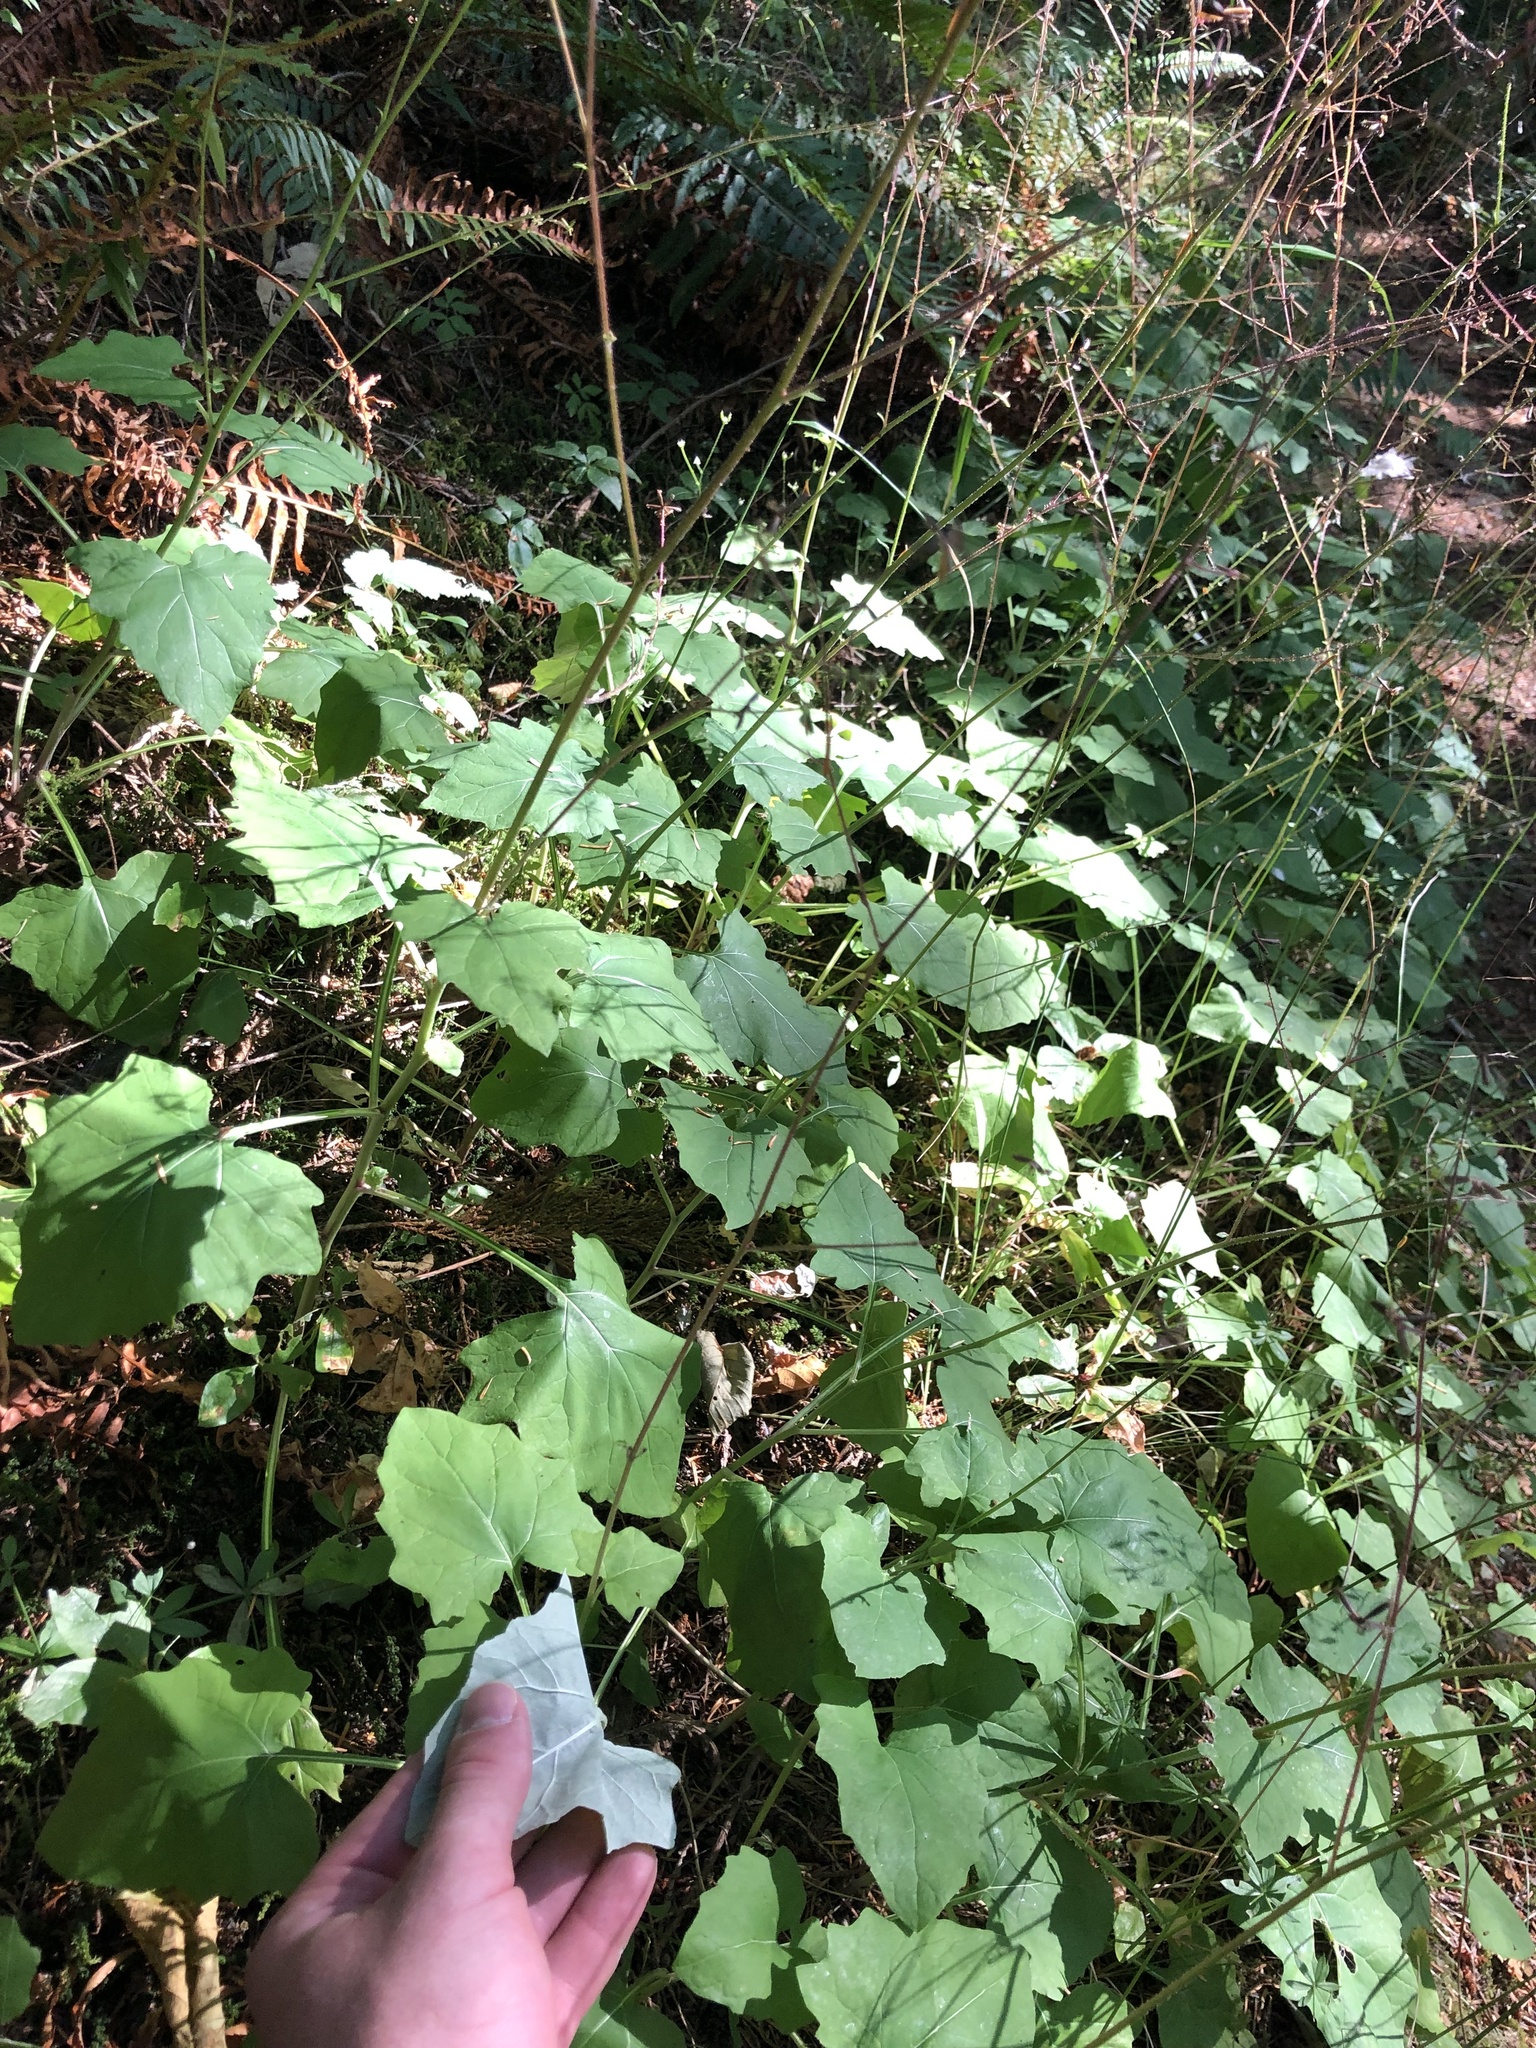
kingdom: Plantae
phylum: Tracheophyta
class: Magnoliopsida
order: Asterales
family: Asteraceae
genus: Adenocaulon
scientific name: Adenocaulon bicolor
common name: Trailplant
